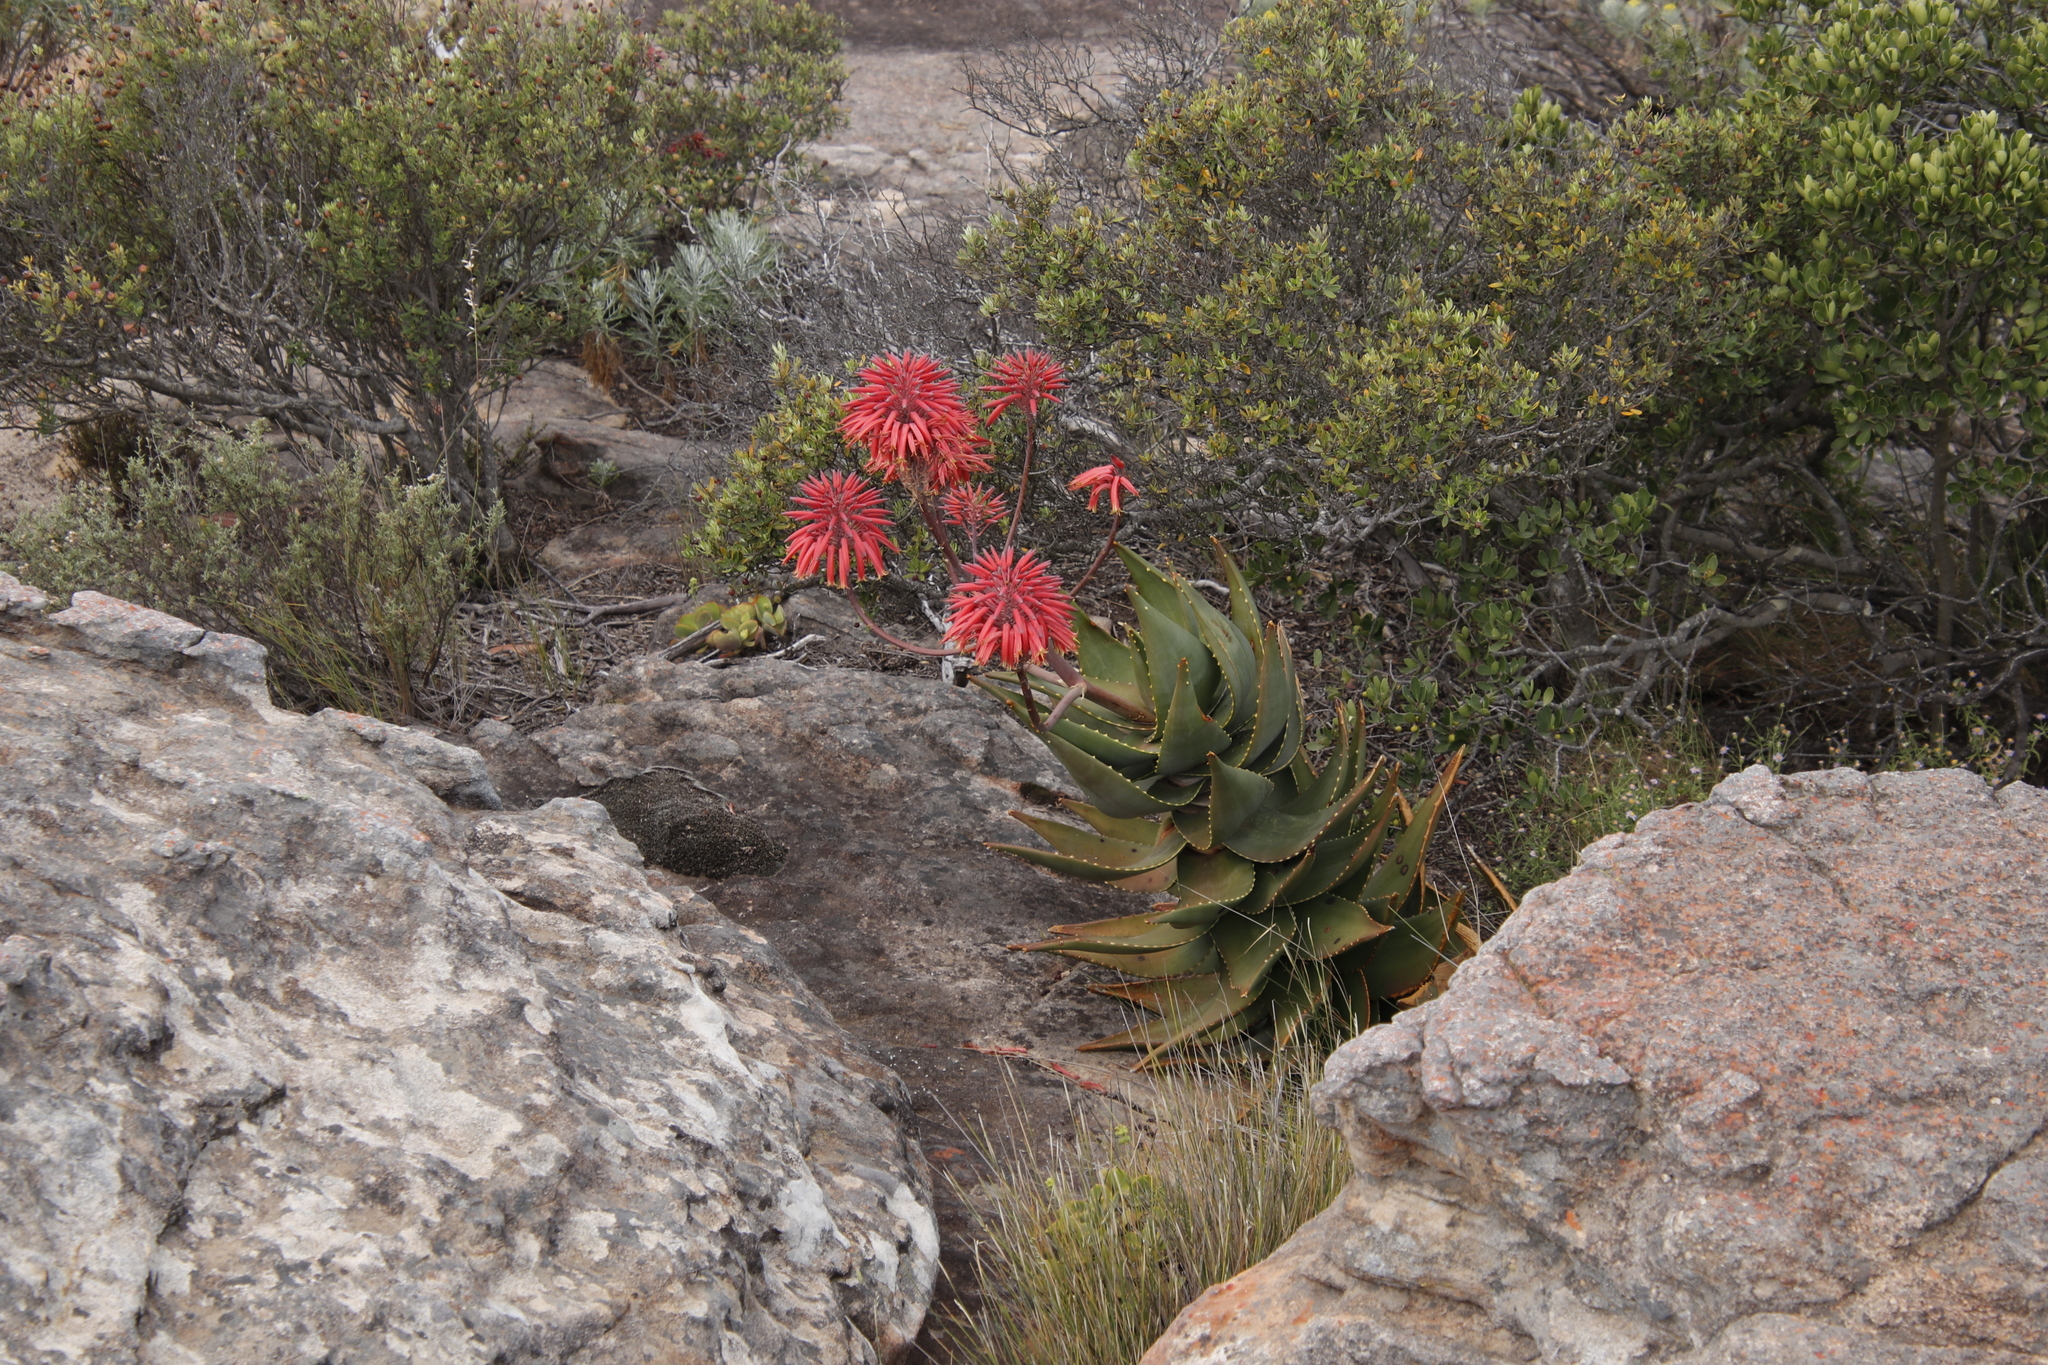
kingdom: Plantae
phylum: Tracheophyta
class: Liliopsida
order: Asparagales
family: Asphodelaceae
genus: Aloe
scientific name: Aloe perfoliata
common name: Mitra aloe
